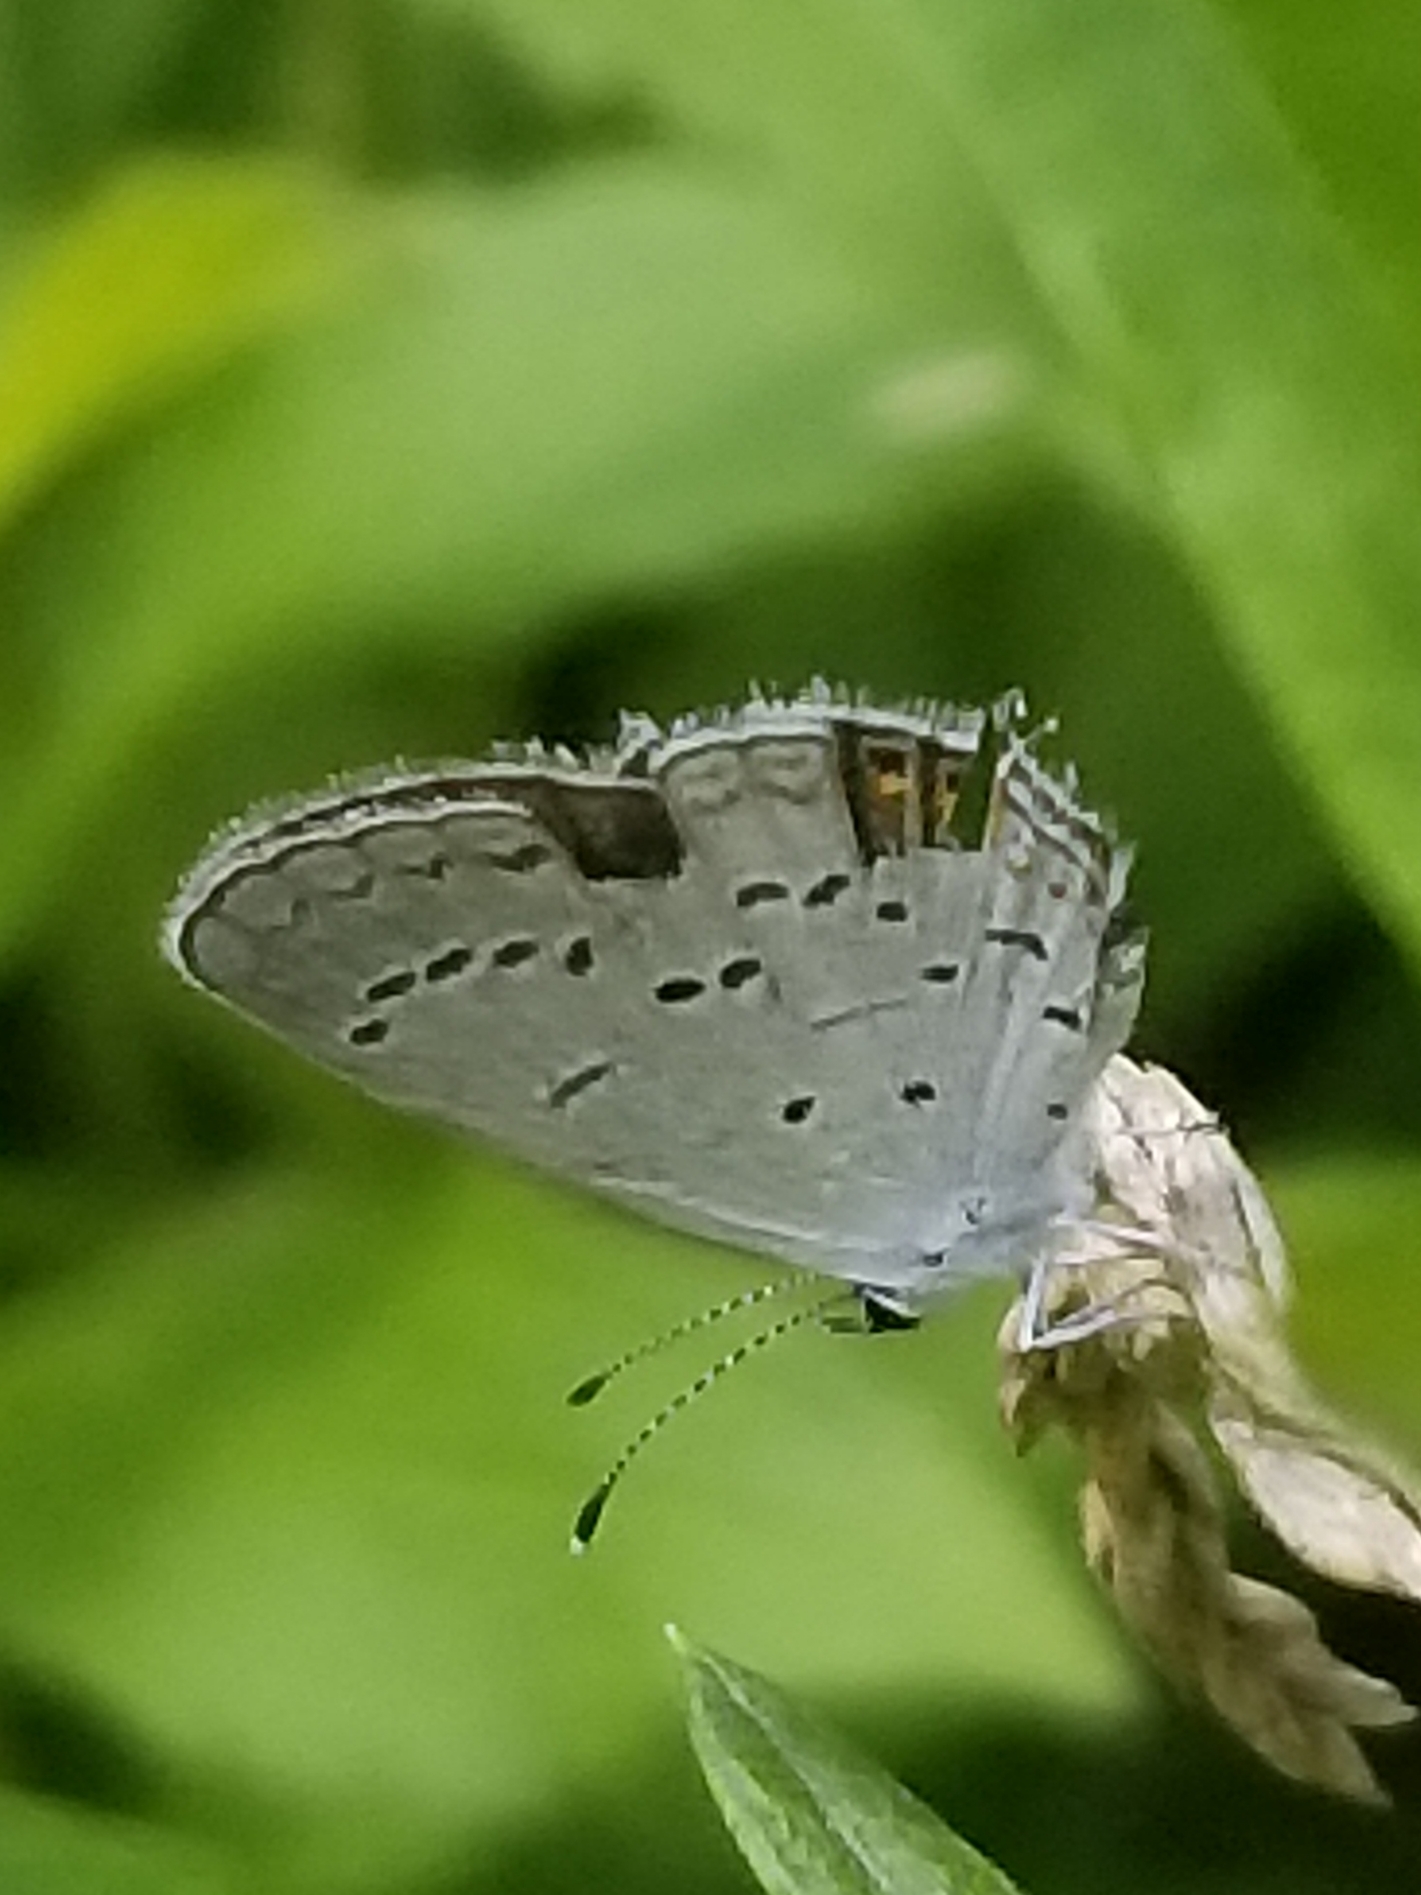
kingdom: Animalia
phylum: Arthropoda
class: Insecta
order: Lepidoptera
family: Lycaenidae
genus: Elkalyce
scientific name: Elkalyce comyntas
